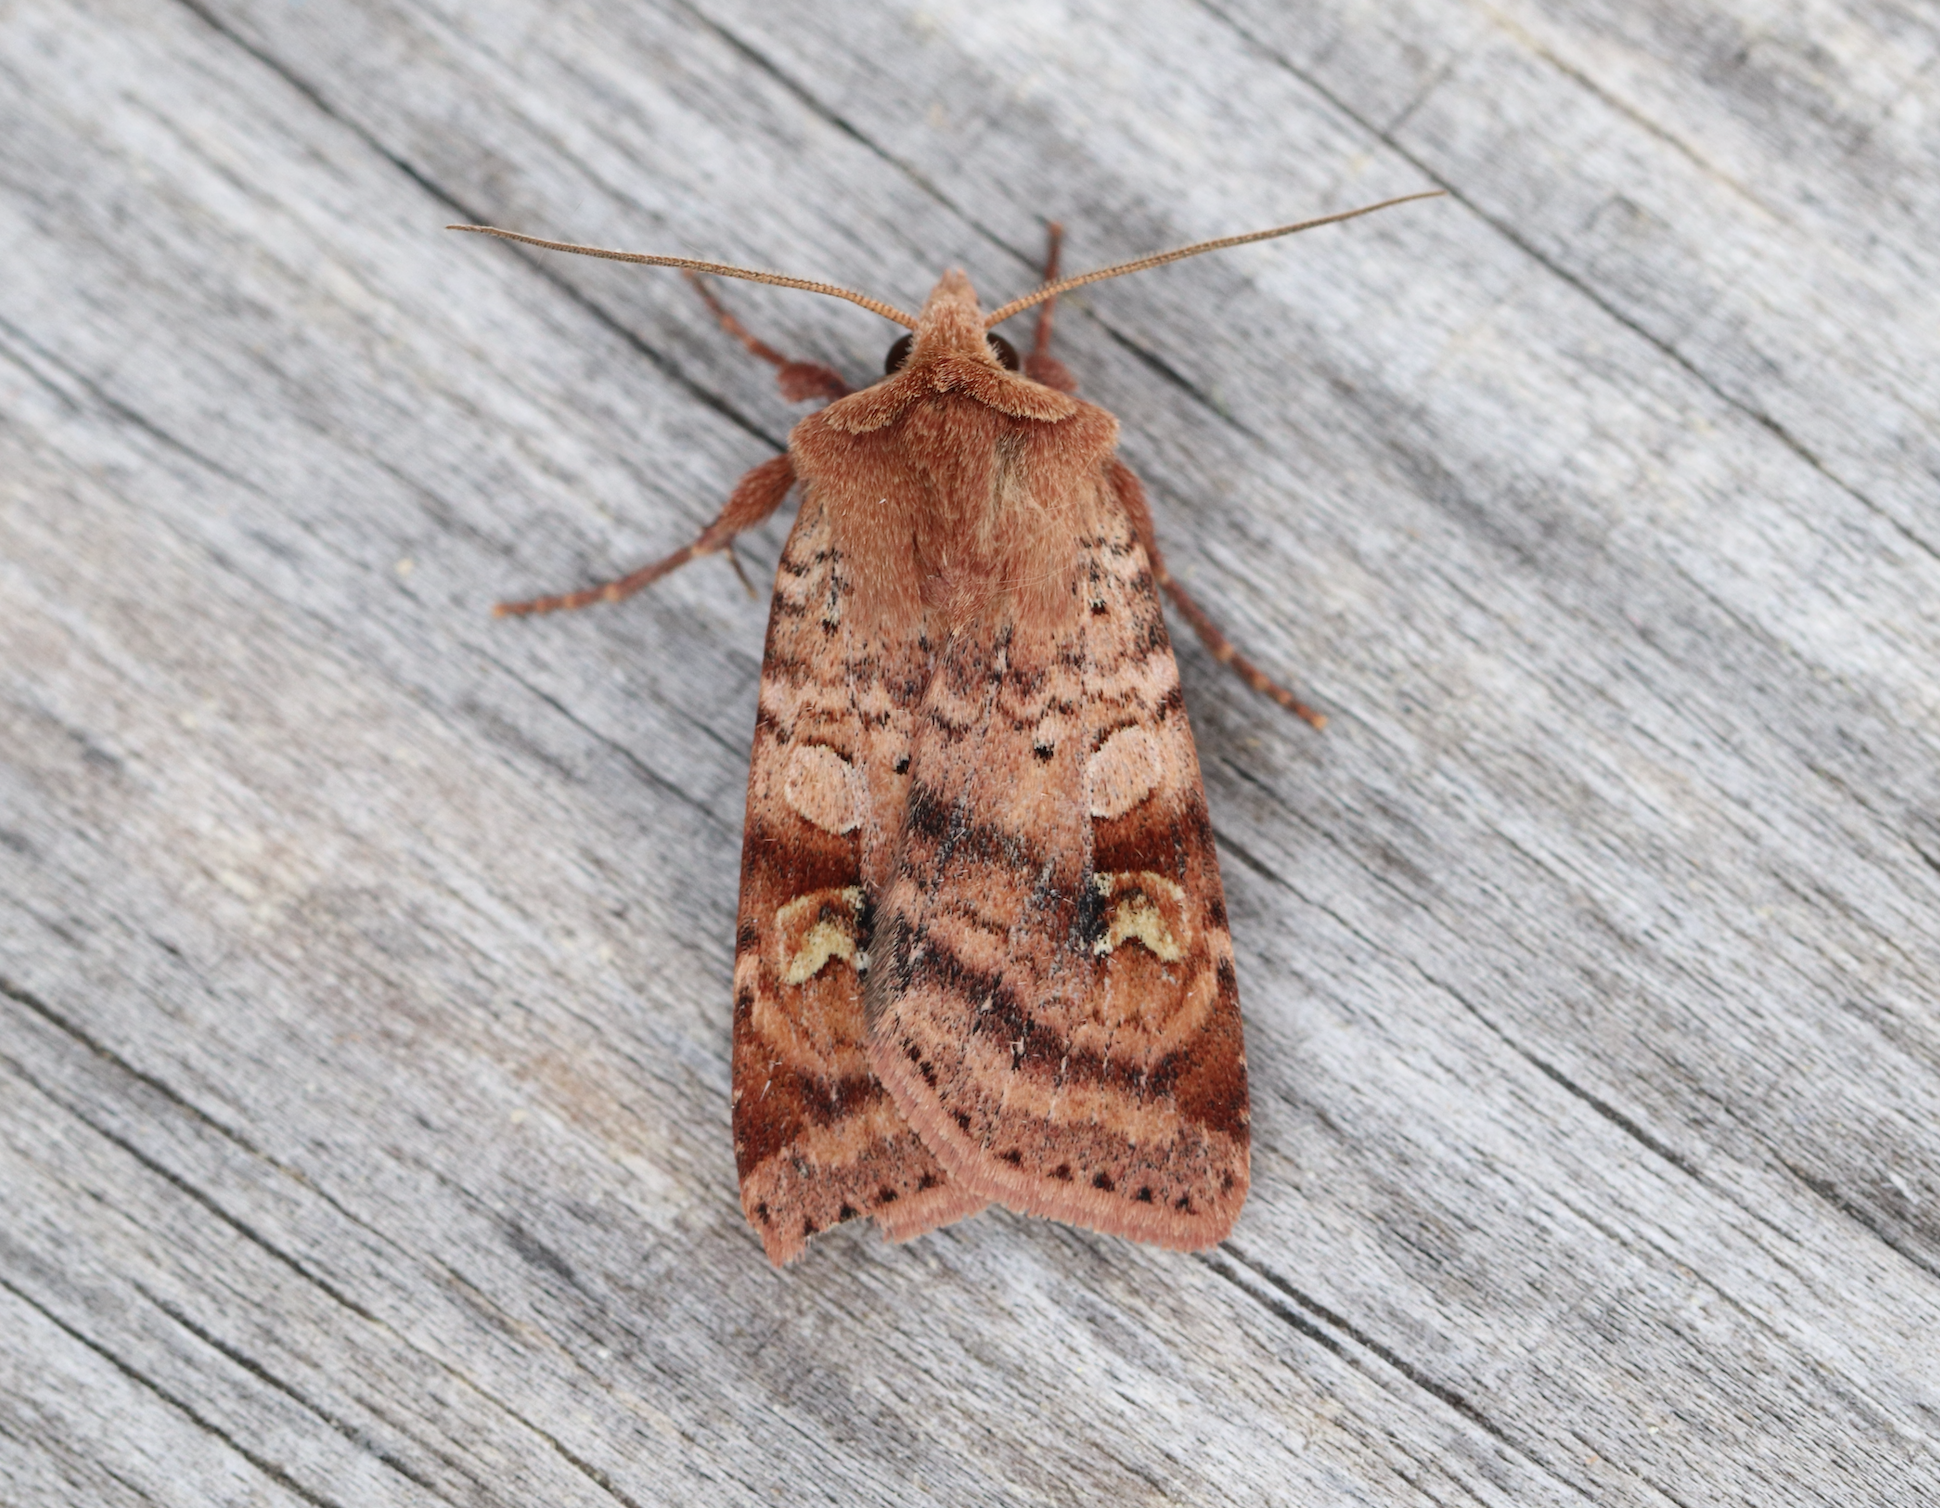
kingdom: Animalia
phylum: Arthropoda
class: Insecta
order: Lepidoptera
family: Noctuidae
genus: Diarsia
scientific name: Diarsia mendica
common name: Ingrailed clay
